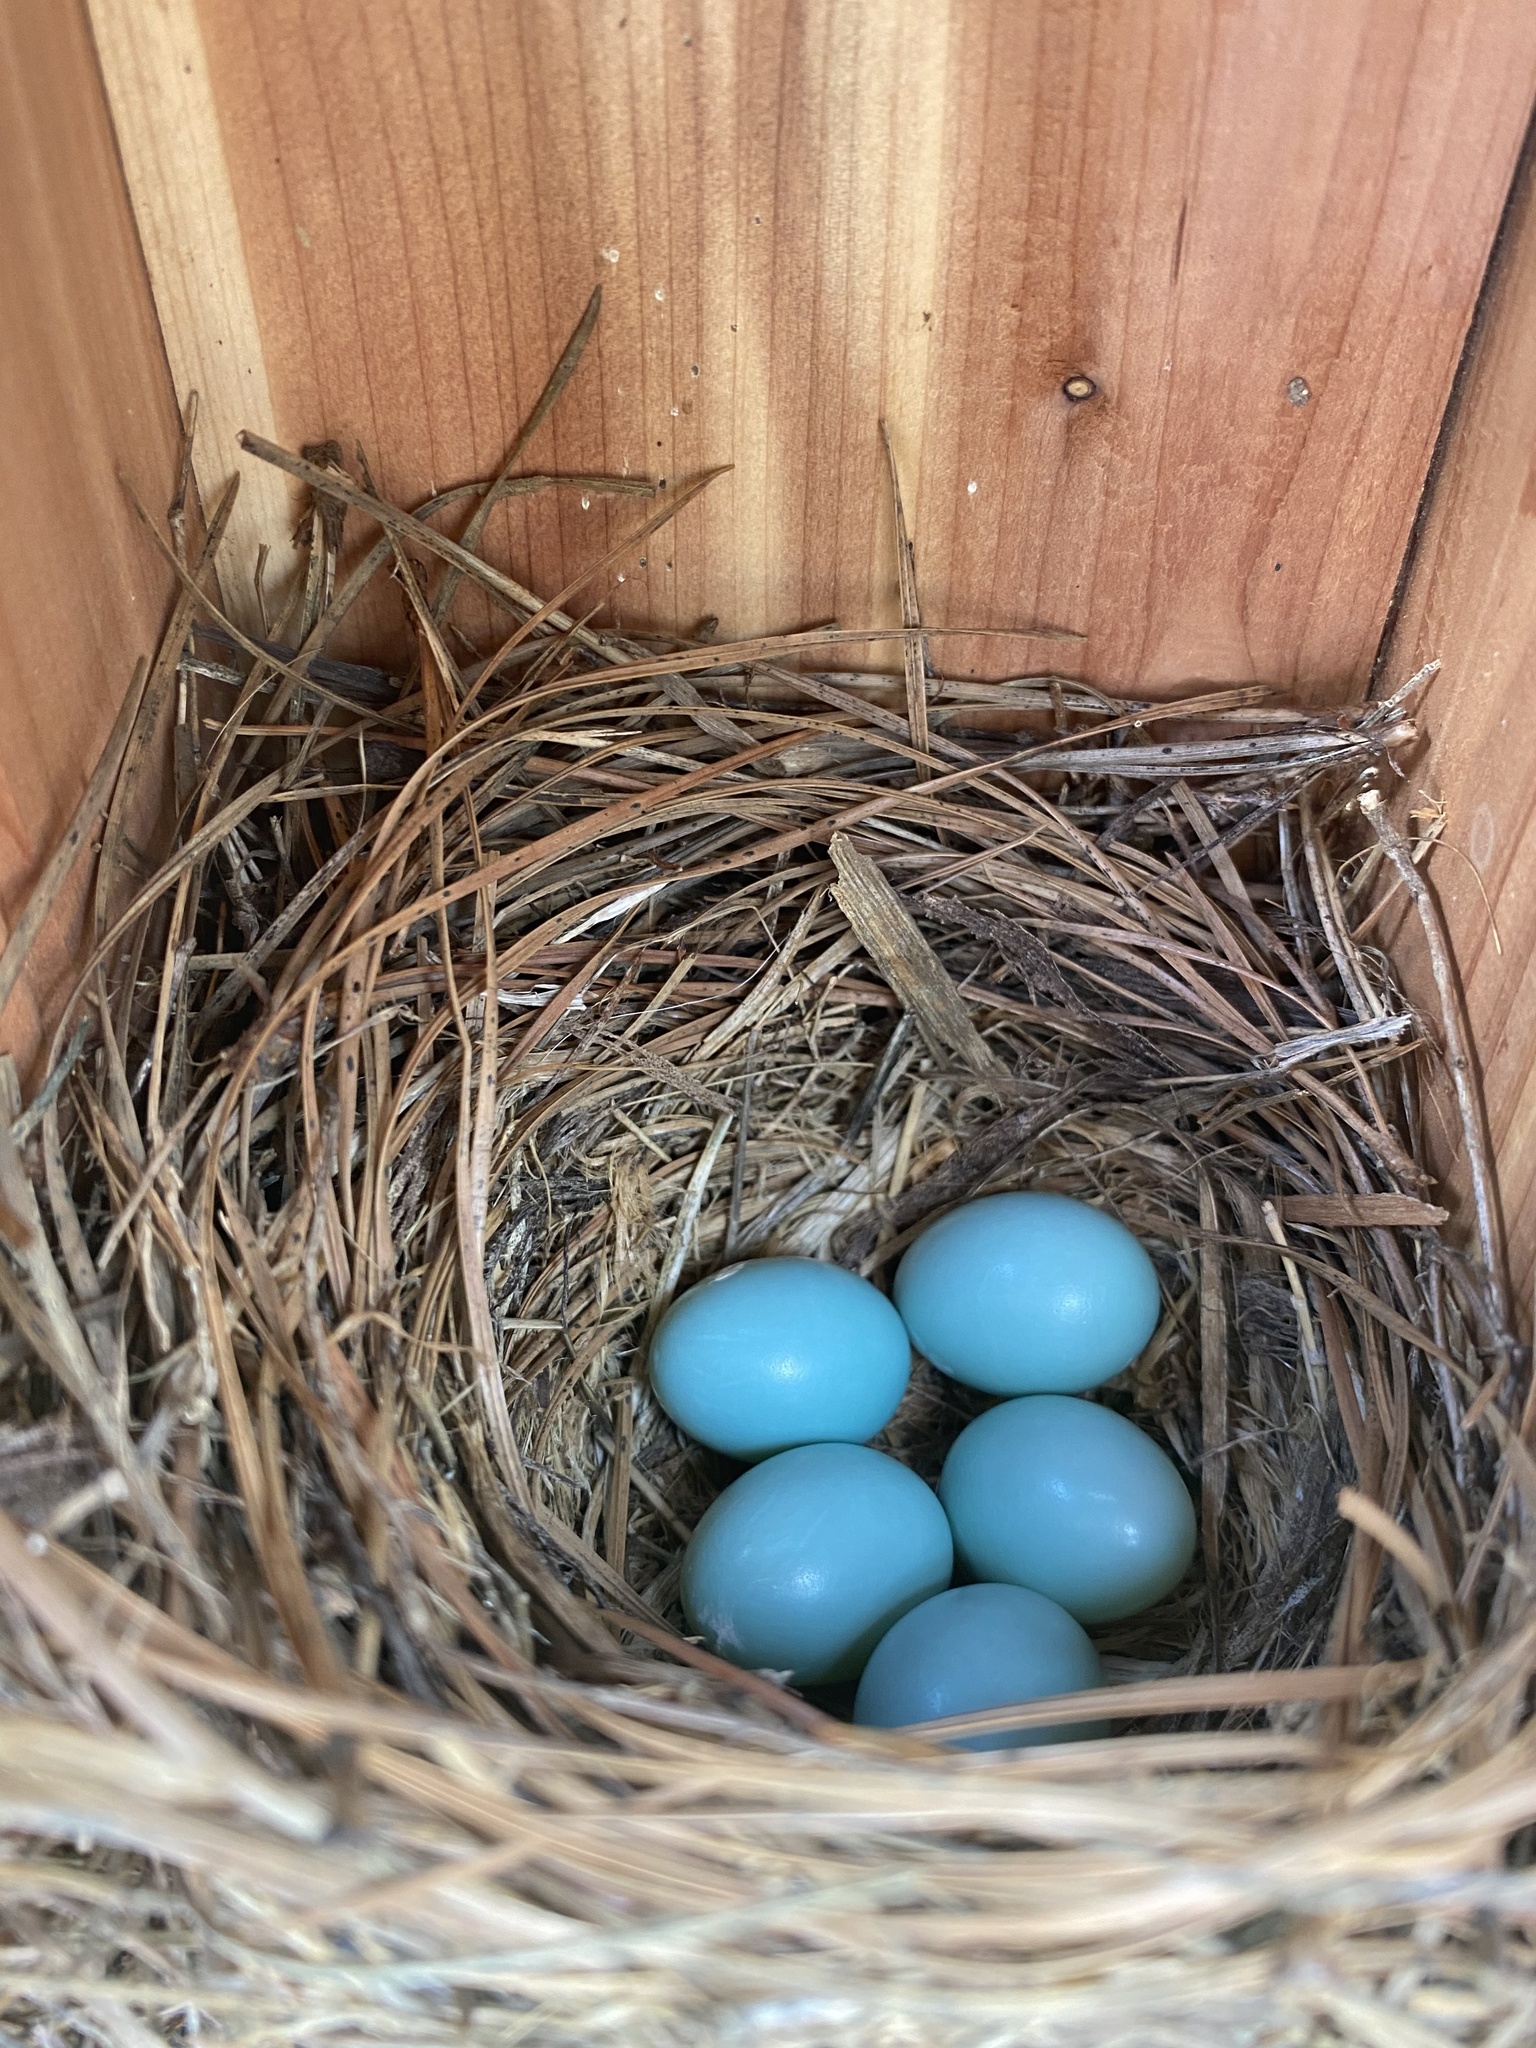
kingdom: Animalia
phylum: Chordata
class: Aves
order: Passeriformes
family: Turdidae
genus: Sialia
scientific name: Sialia sialis
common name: Eastern bluebird
